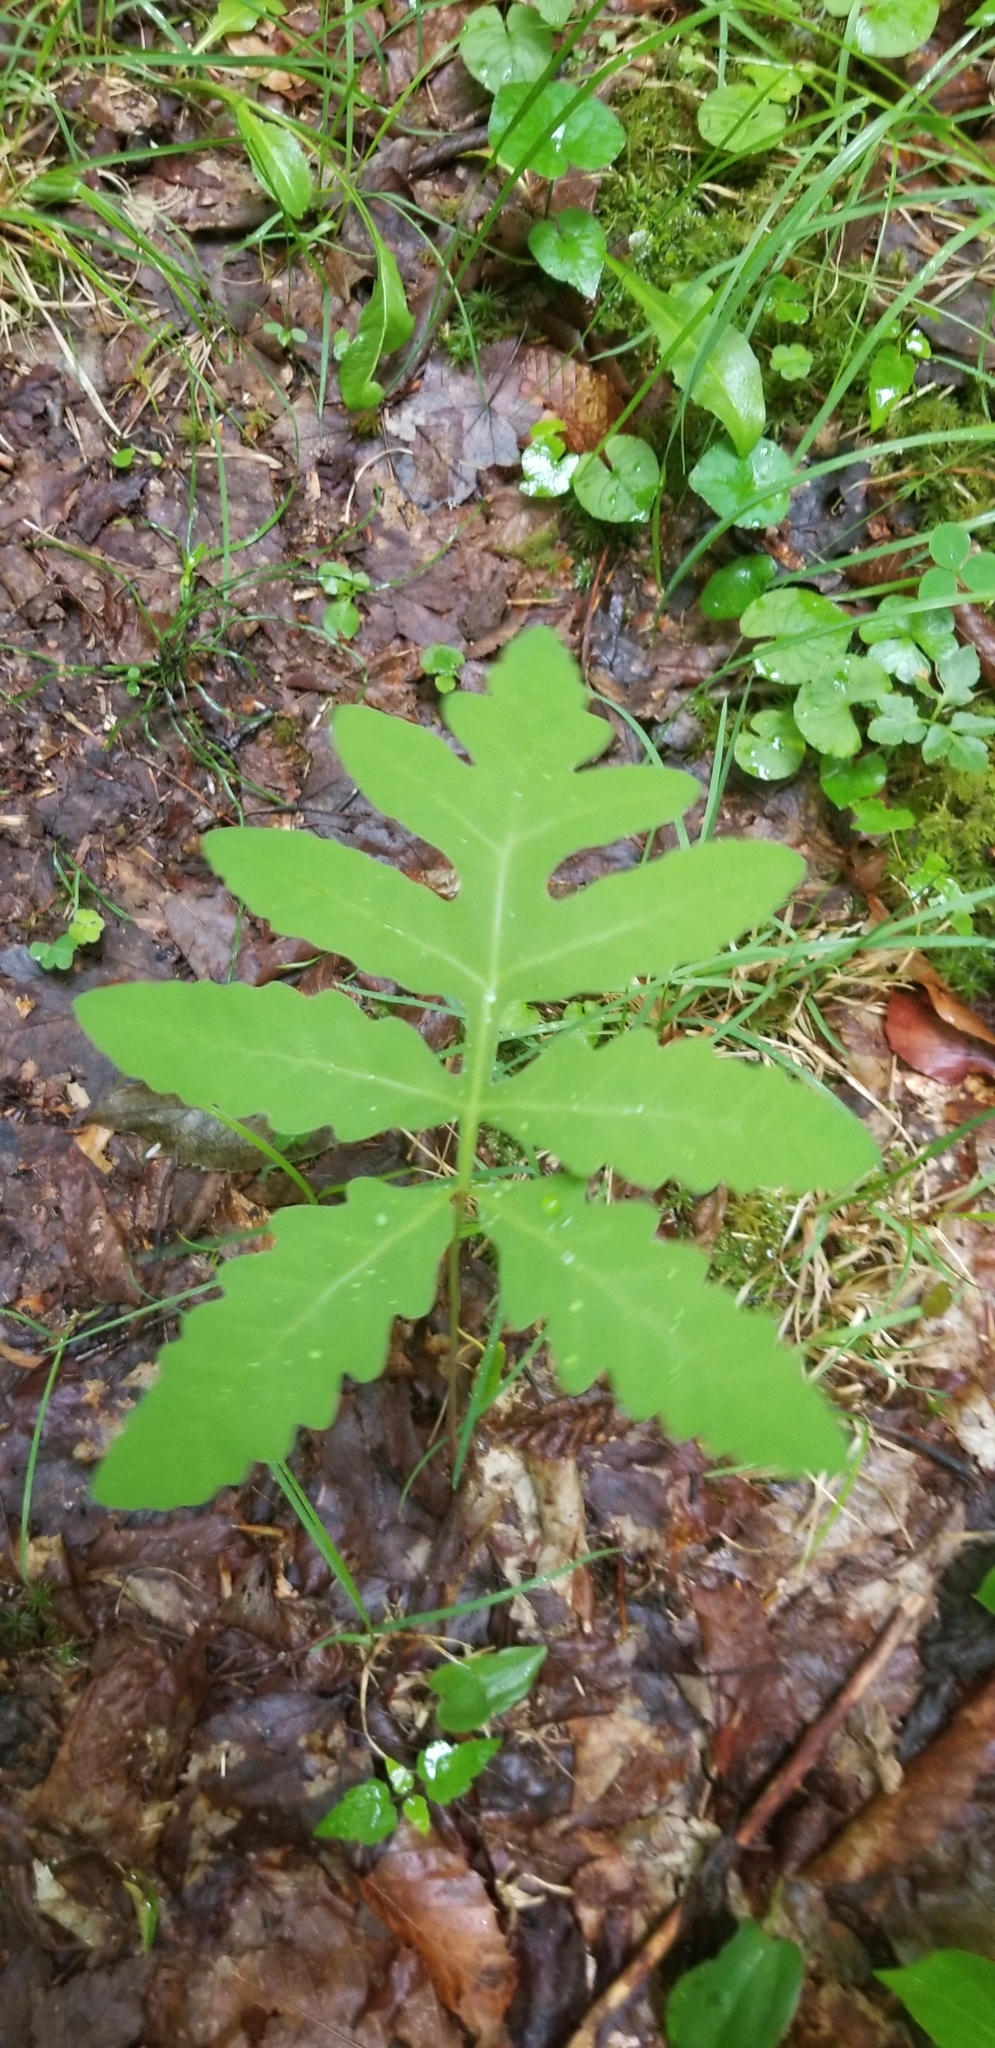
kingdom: Plantae
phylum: Tracheophyta
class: Polypodiopsida
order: Polypodiales
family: Onocleaceae
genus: Onoclea
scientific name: Onoclea sensibilis
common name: Sensitive fern
